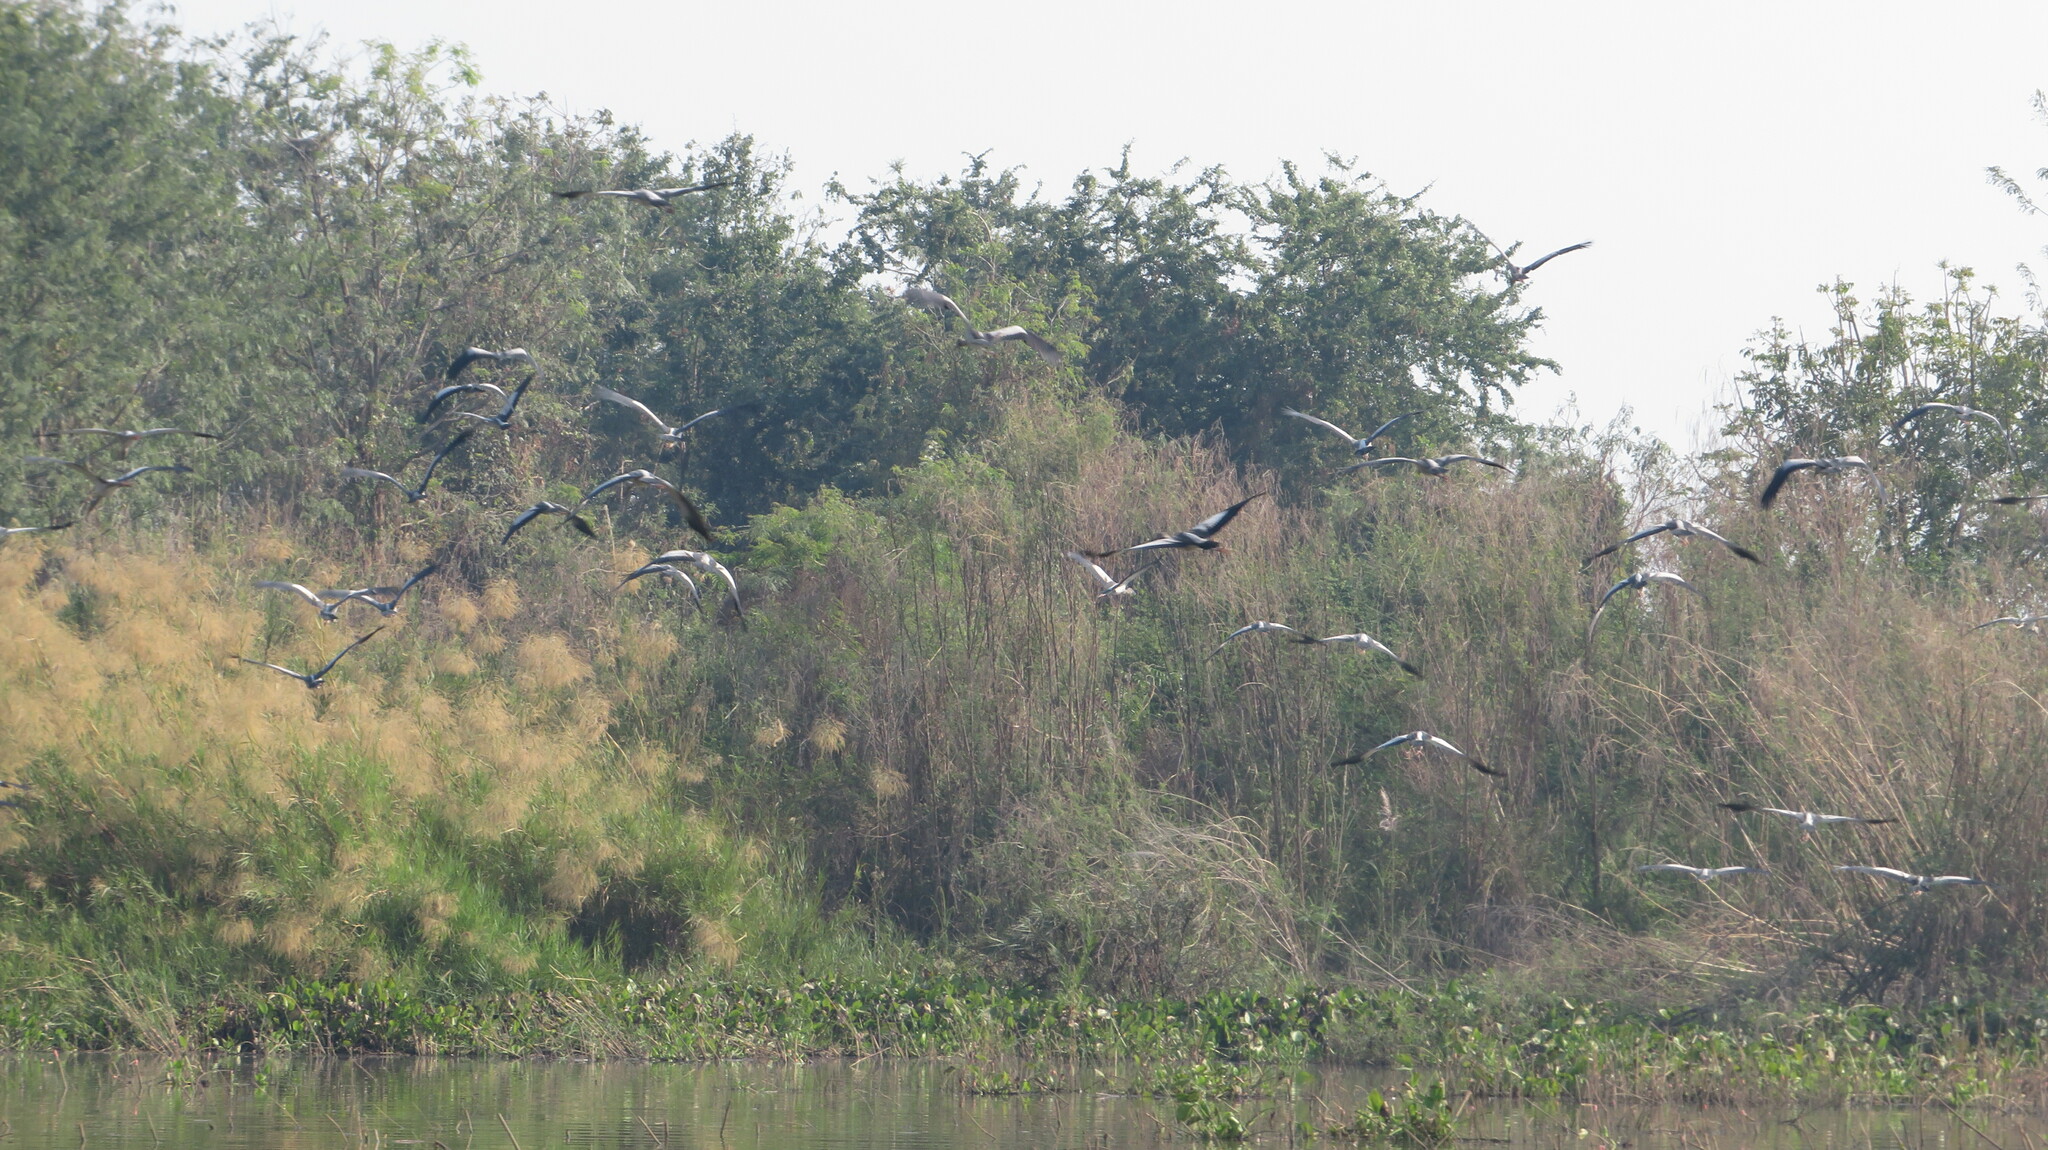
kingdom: Animalia
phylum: Chordata
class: Aves
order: Ciconiiformes
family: Ciconiidae
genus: Anastomus
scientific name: Anastomus oscitans
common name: Asian openbill
